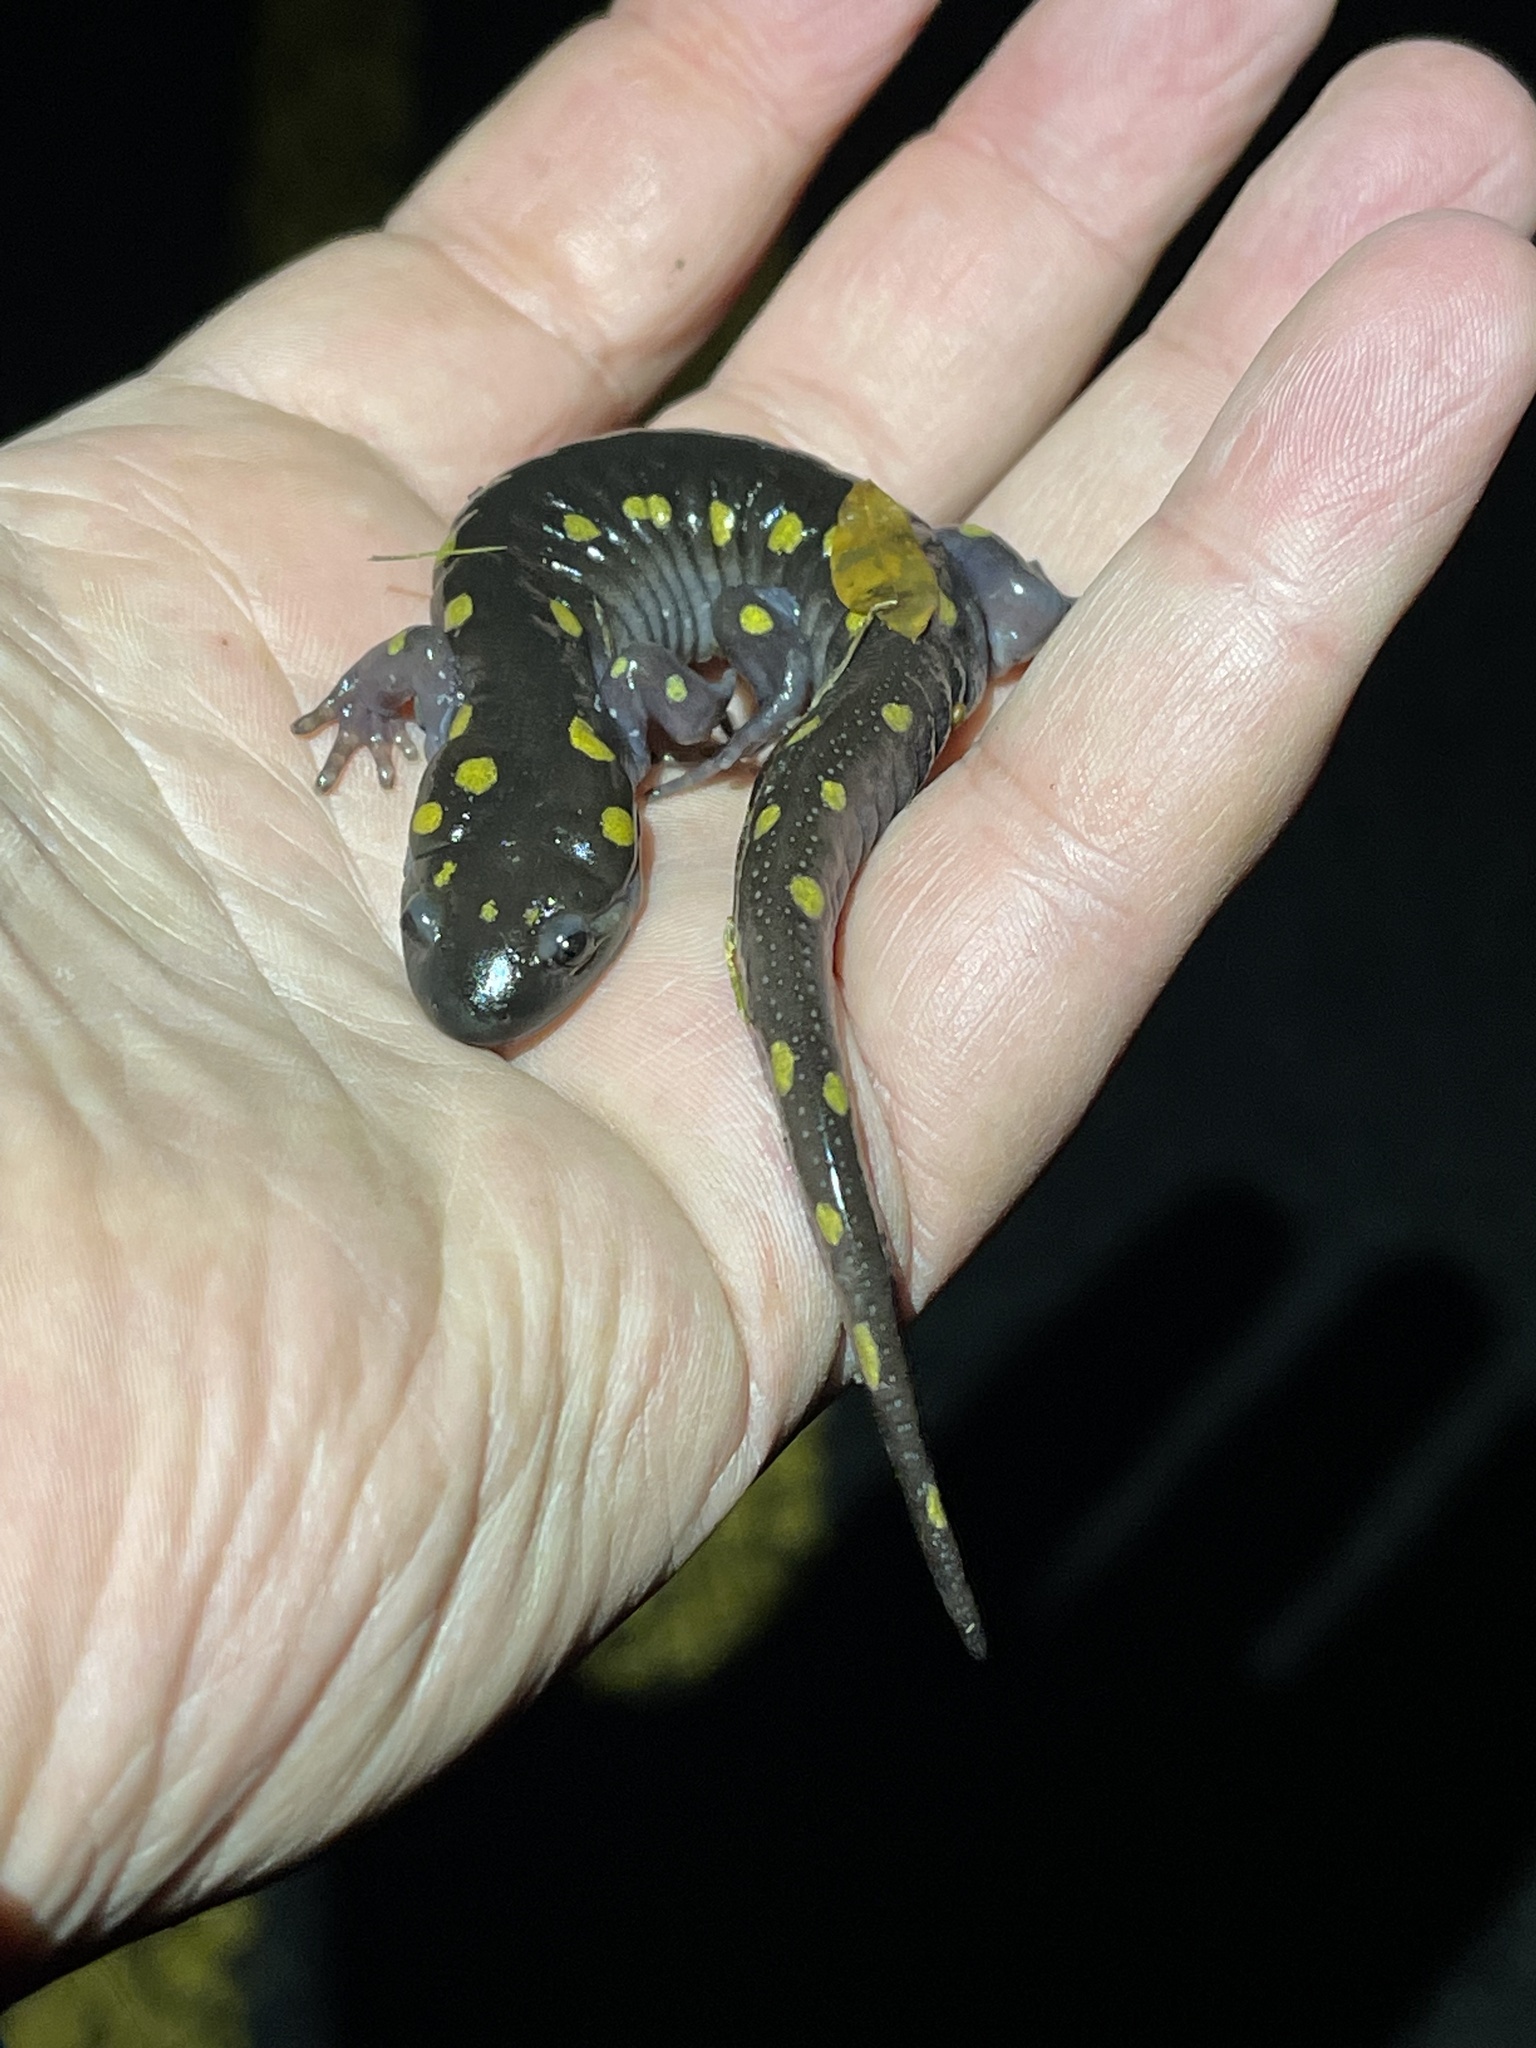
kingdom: Animalia
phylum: Chordata
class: Amphibia
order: Caudata
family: Ambystomatidae
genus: Ambystoma
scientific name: Ambystoma maculatum
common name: Spotted salamander
